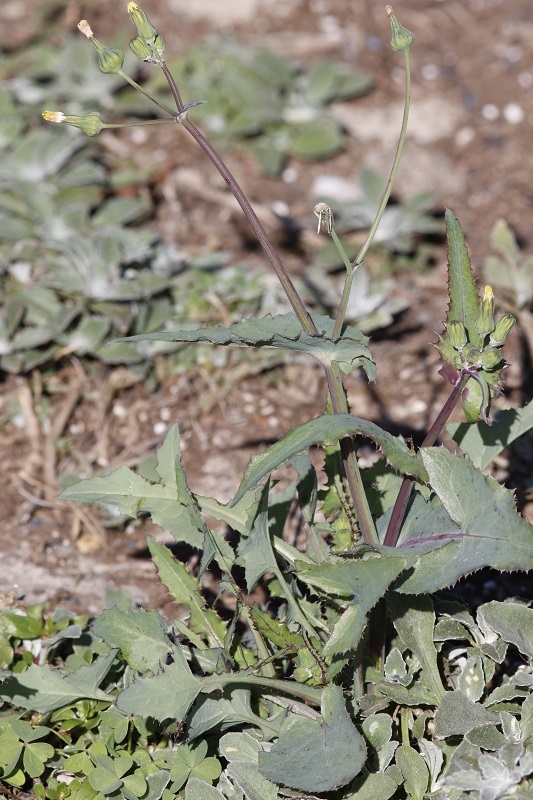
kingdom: Plantae
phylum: Tracheophyta
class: Magnoliopsida
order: Asterales
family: Asteraceae
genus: Sonchus
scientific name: Sonchus oleraceus
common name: Common sowthistle
